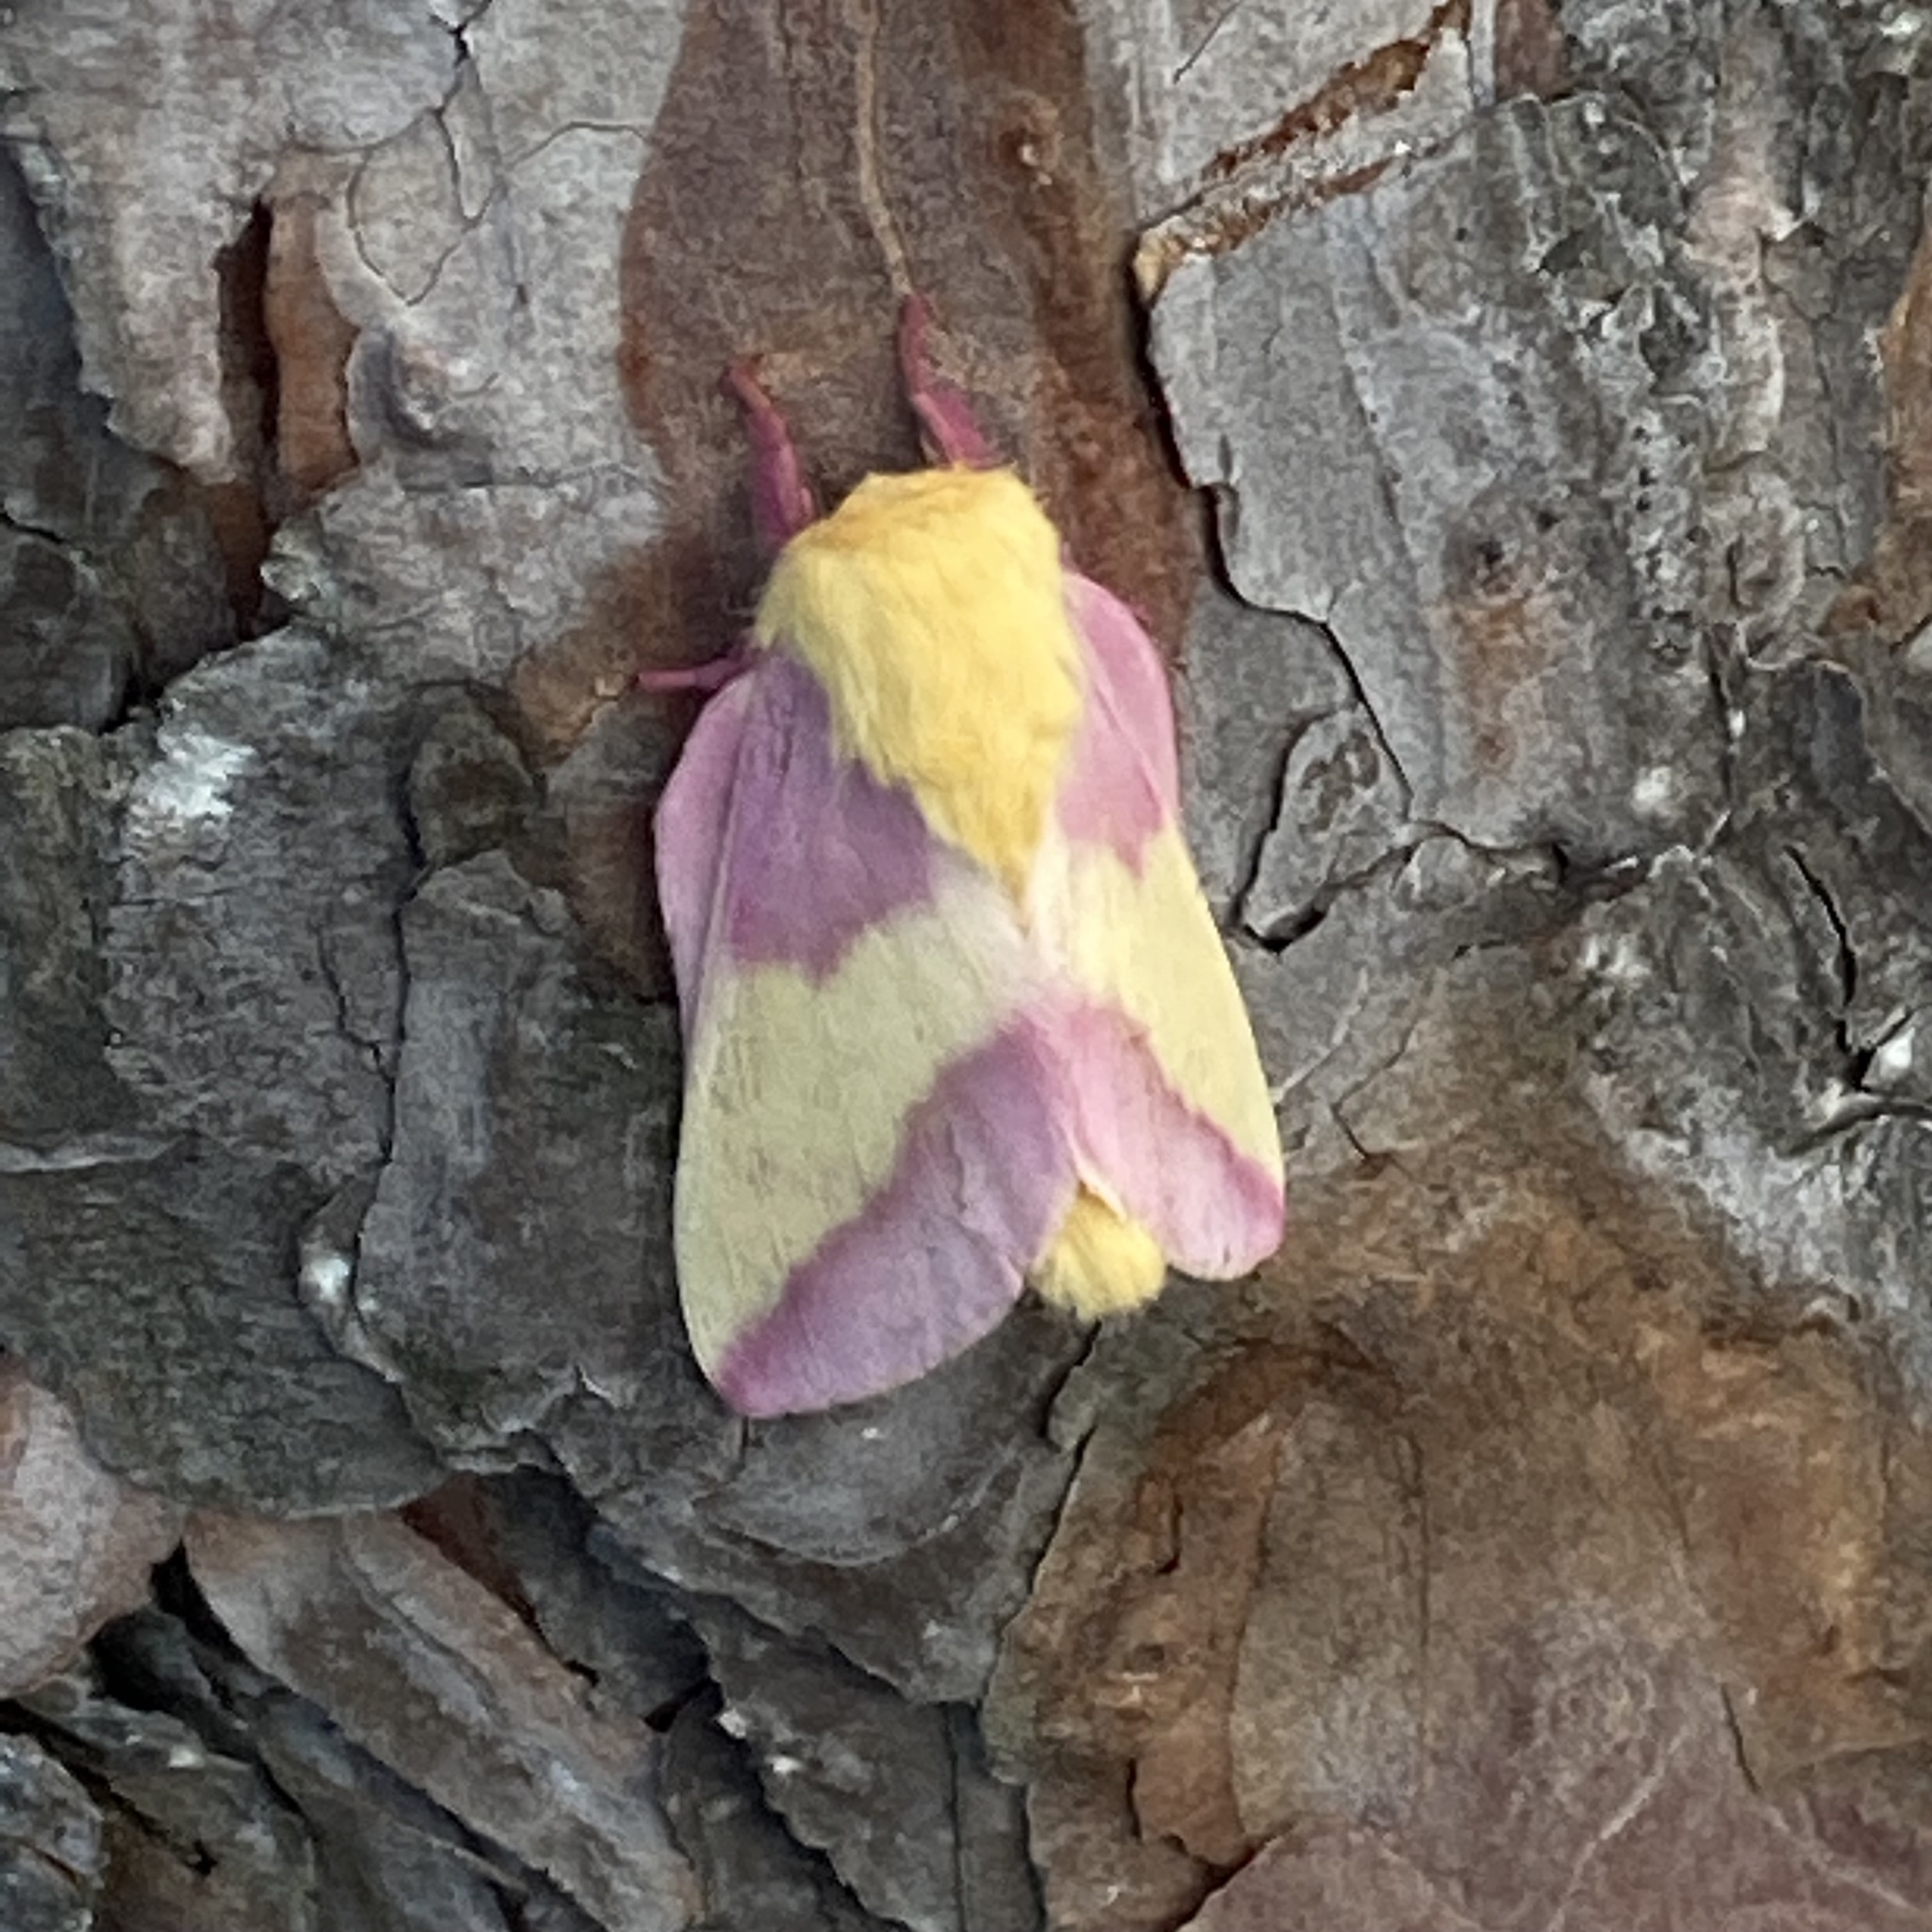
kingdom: Animalia
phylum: Arthropoda
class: Insecta
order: Lepidoptera
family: Saturniidae
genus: Dryocampa
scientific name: Dryocampa rubicunda
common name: Rosy maple moth
